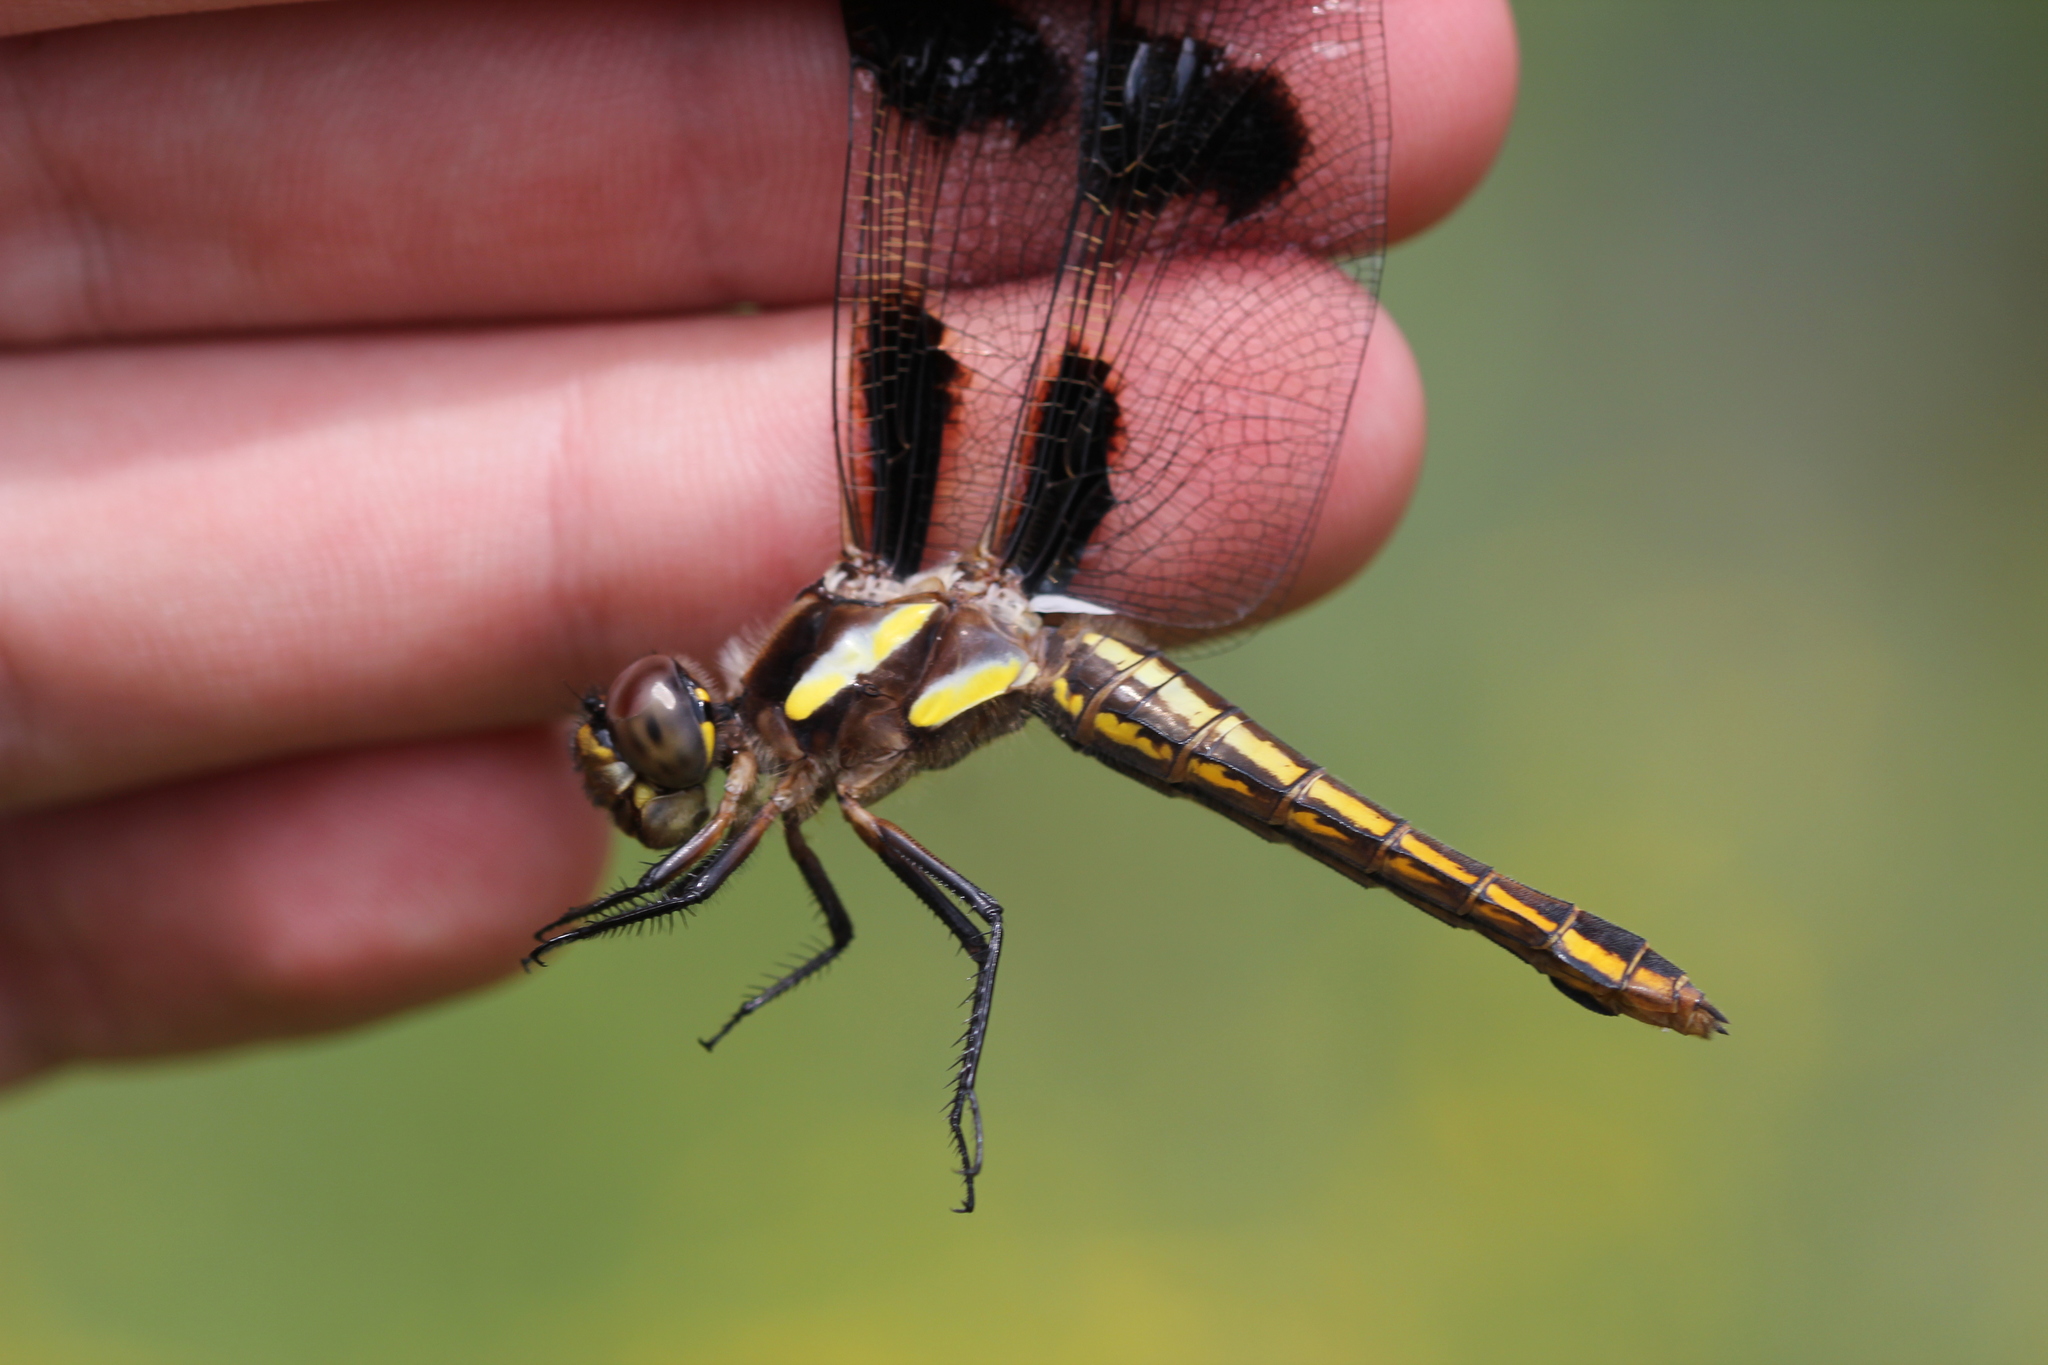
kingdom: Animalia
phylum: Arthropoda
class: Insecta
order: Odonata
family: Libellulidae
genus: Libellula
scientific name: Libellula pulchella
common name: Twelve-spotted skimmer
